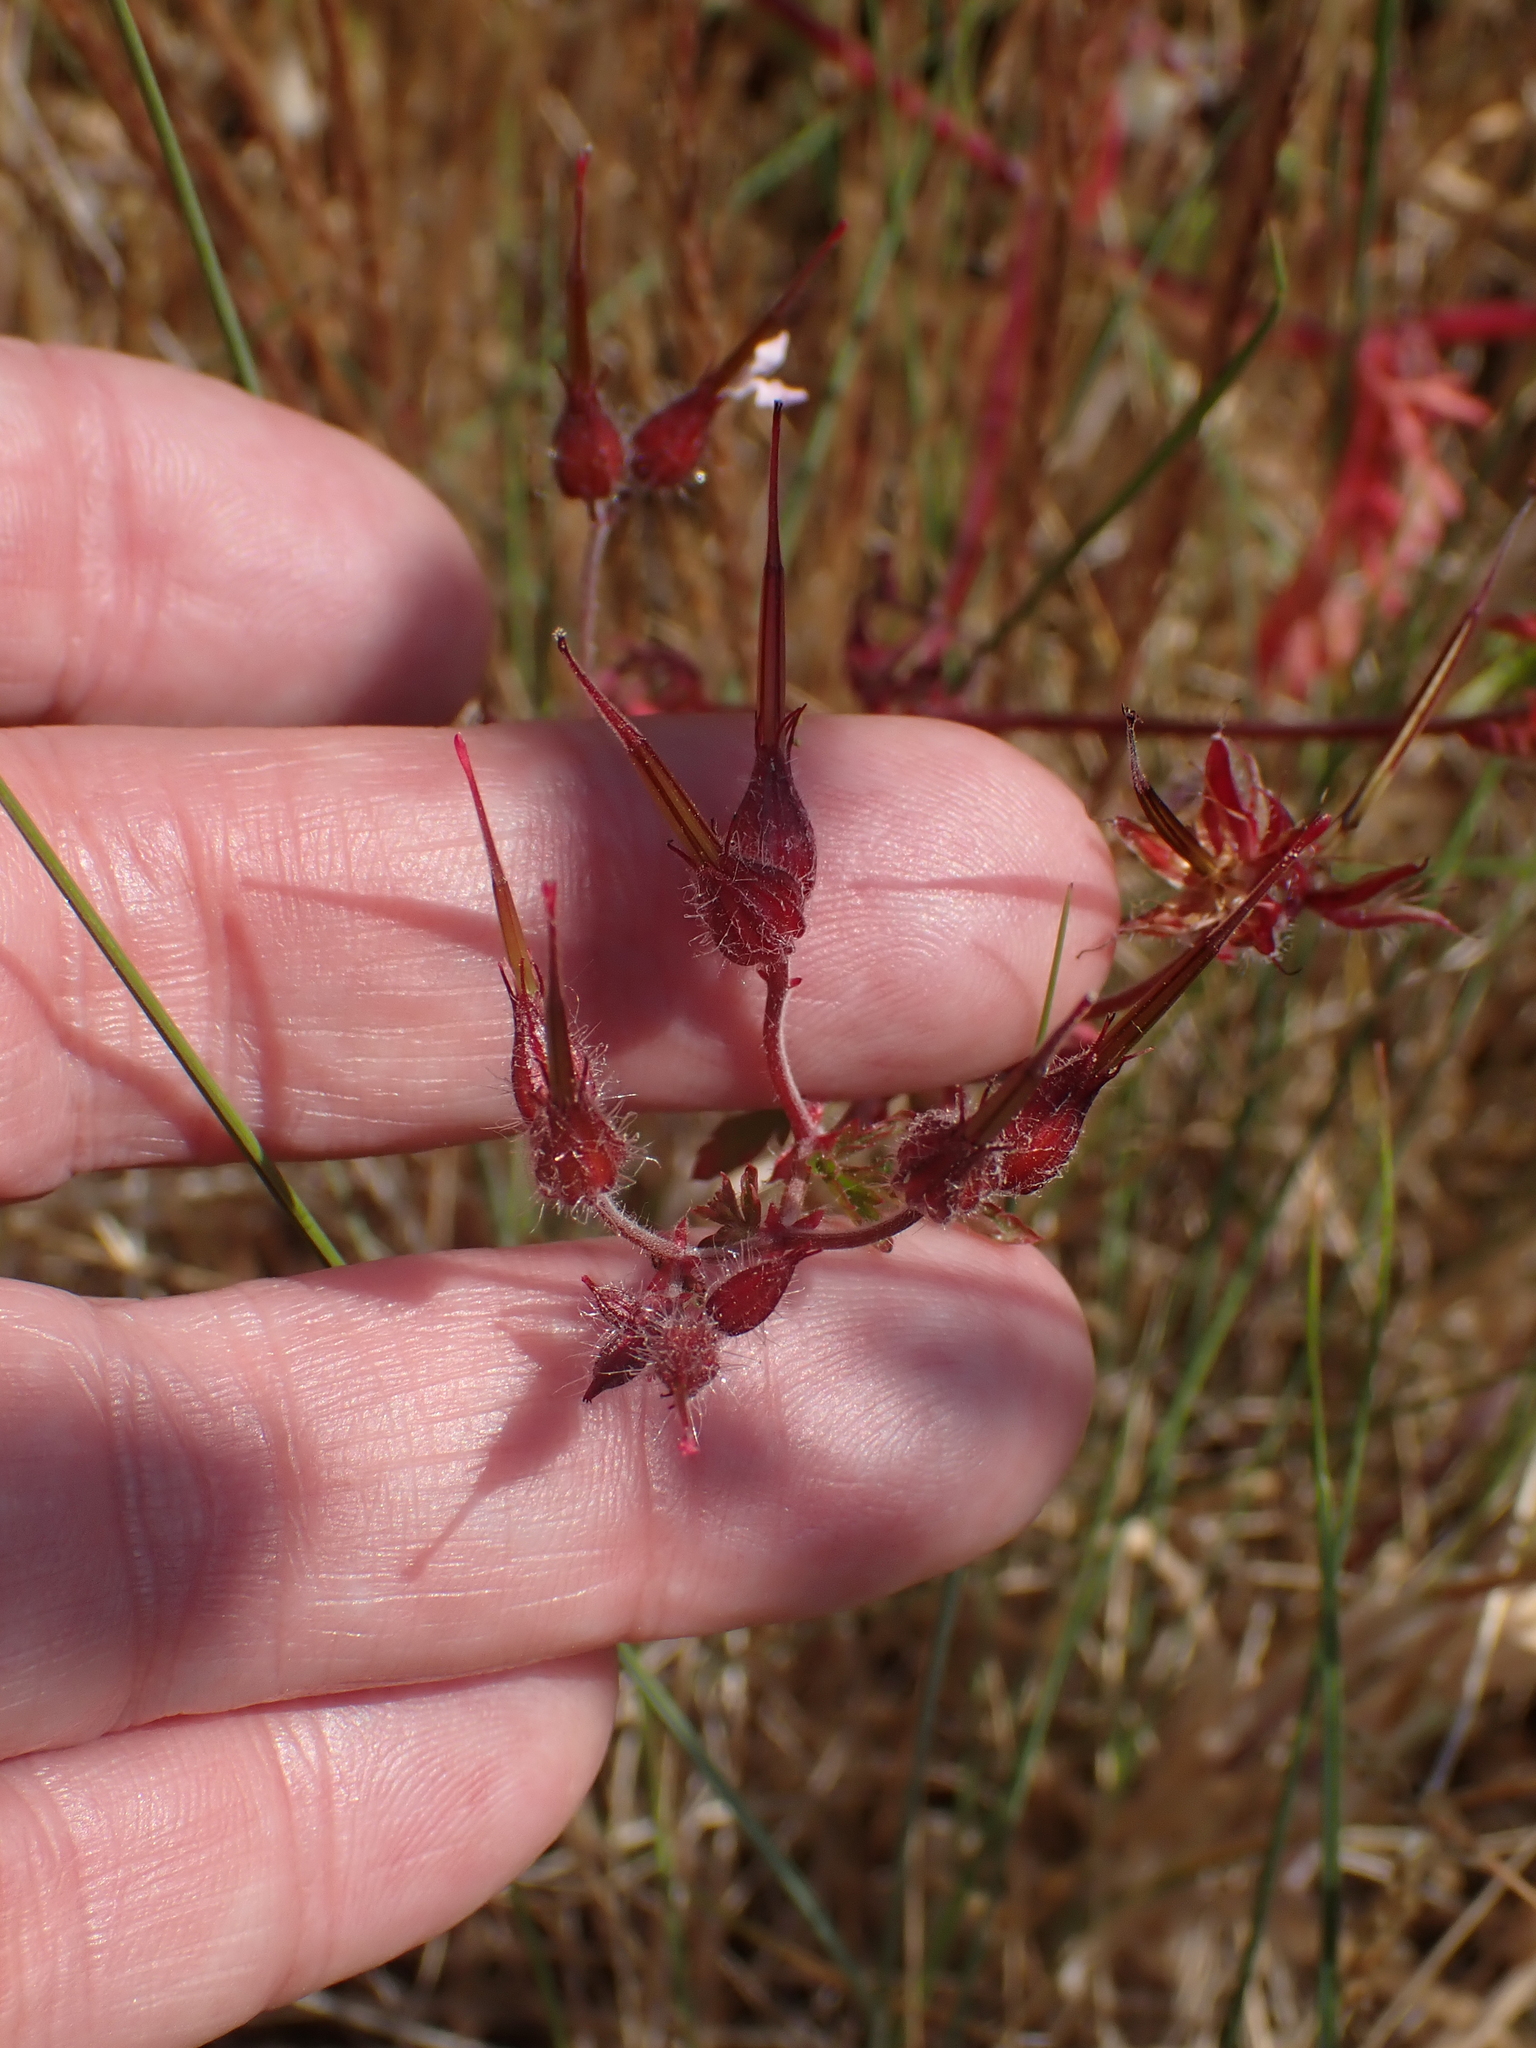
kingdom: Plantae
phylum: Tracheophyta
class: Magnoliopsida
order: Geraniales
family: Geraniaceae
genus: Geranium
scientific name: Geranium robertianum
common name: Herb-robert
